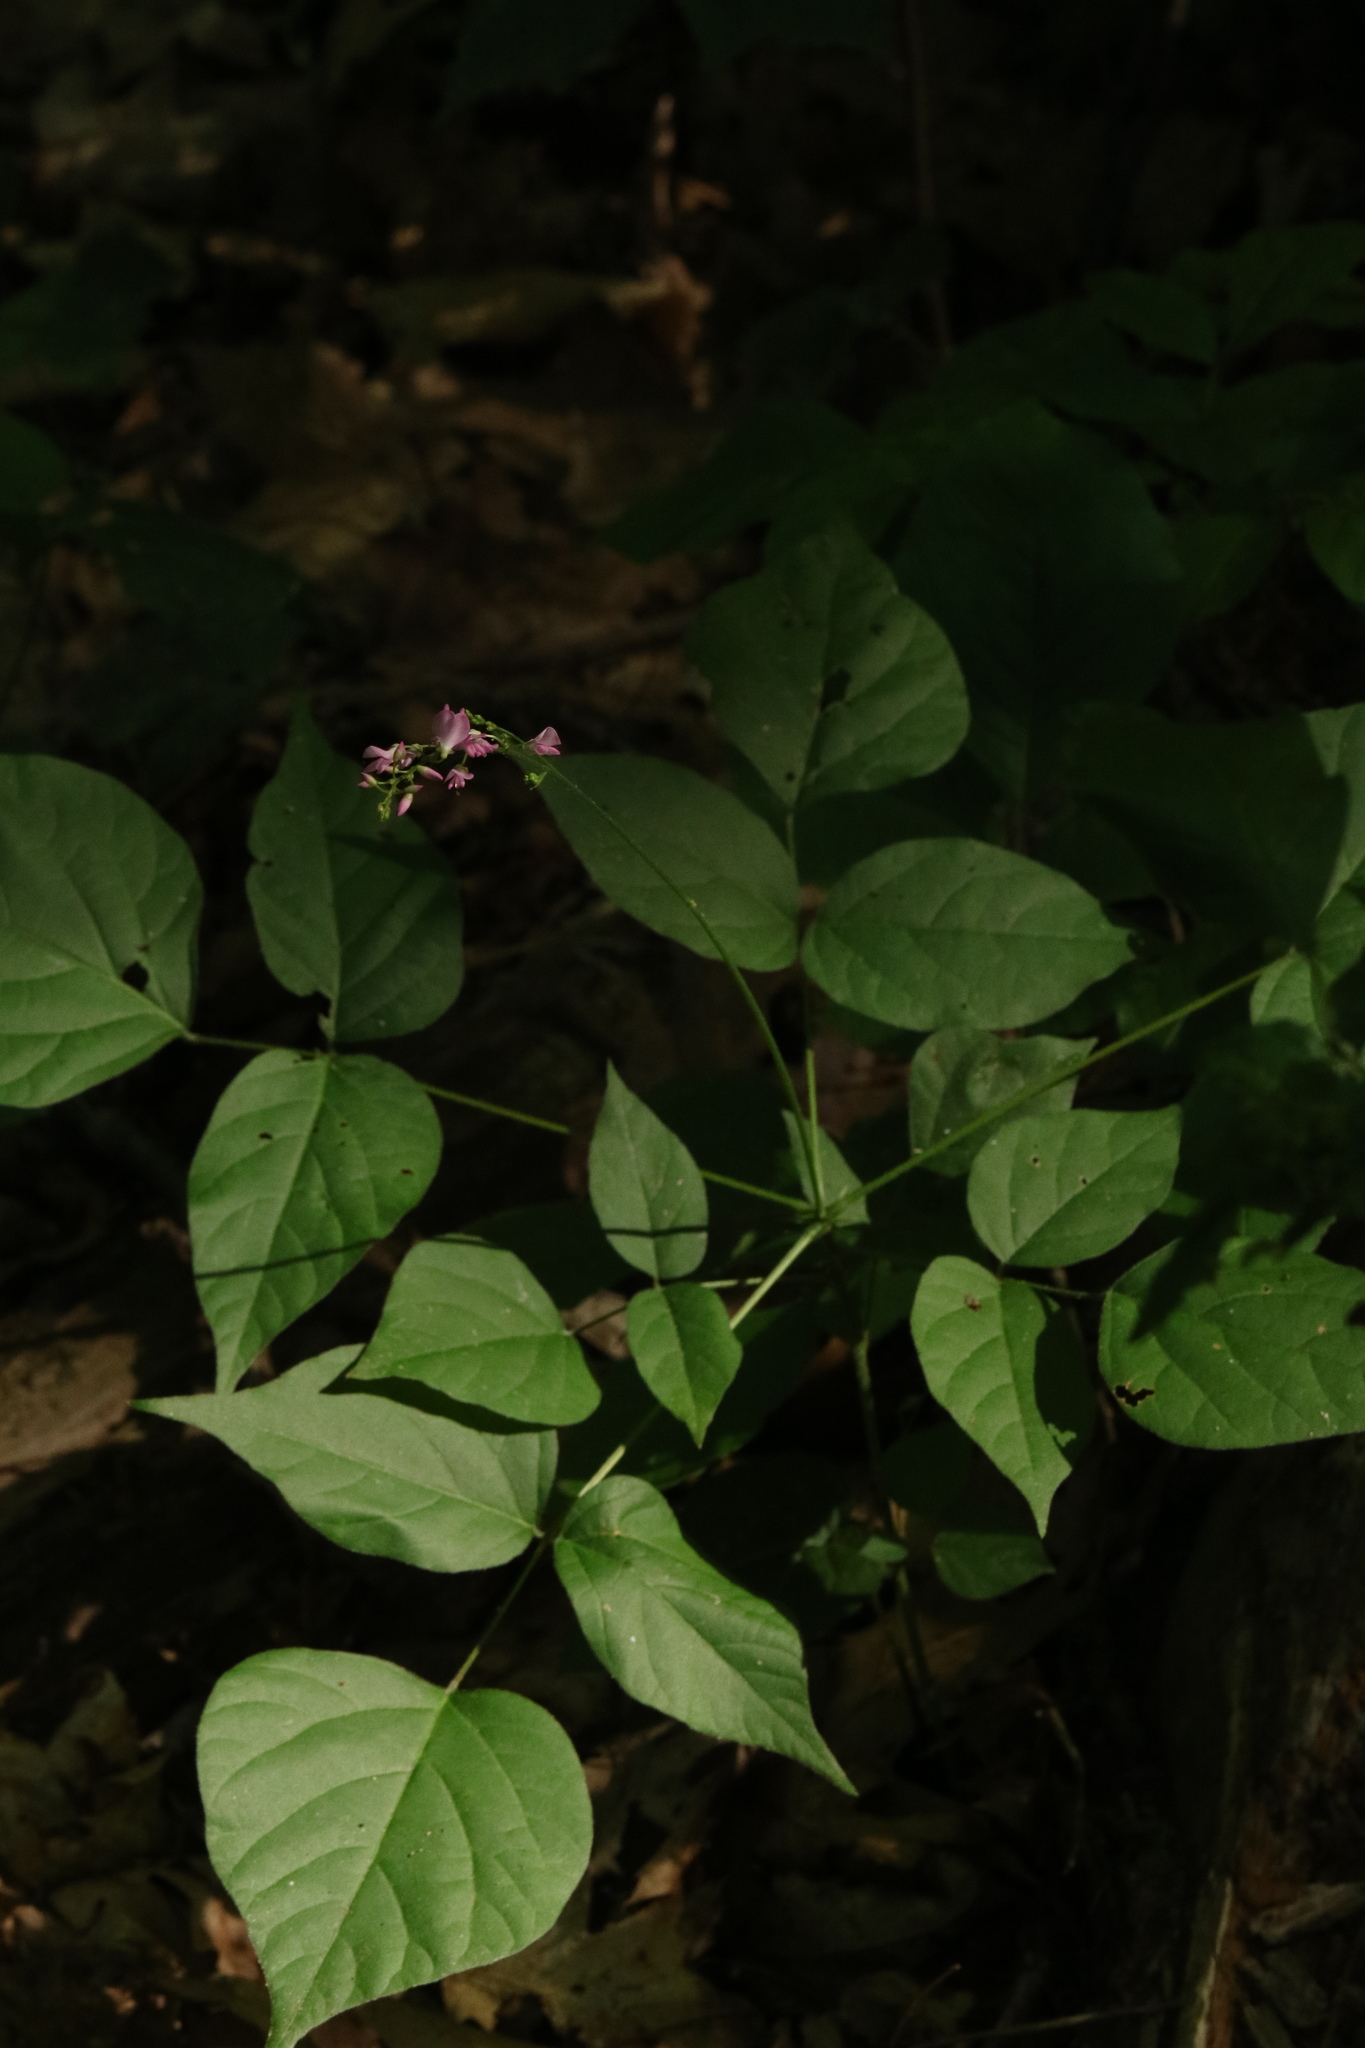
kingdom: Plantae
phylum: Tracheophyta
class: Magnoliopsida
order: Fabales
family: Fabaceae
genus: Hylodesmum
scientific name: Hylodesmum glutinosum
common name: Clustered-leaved tick-trefoil
